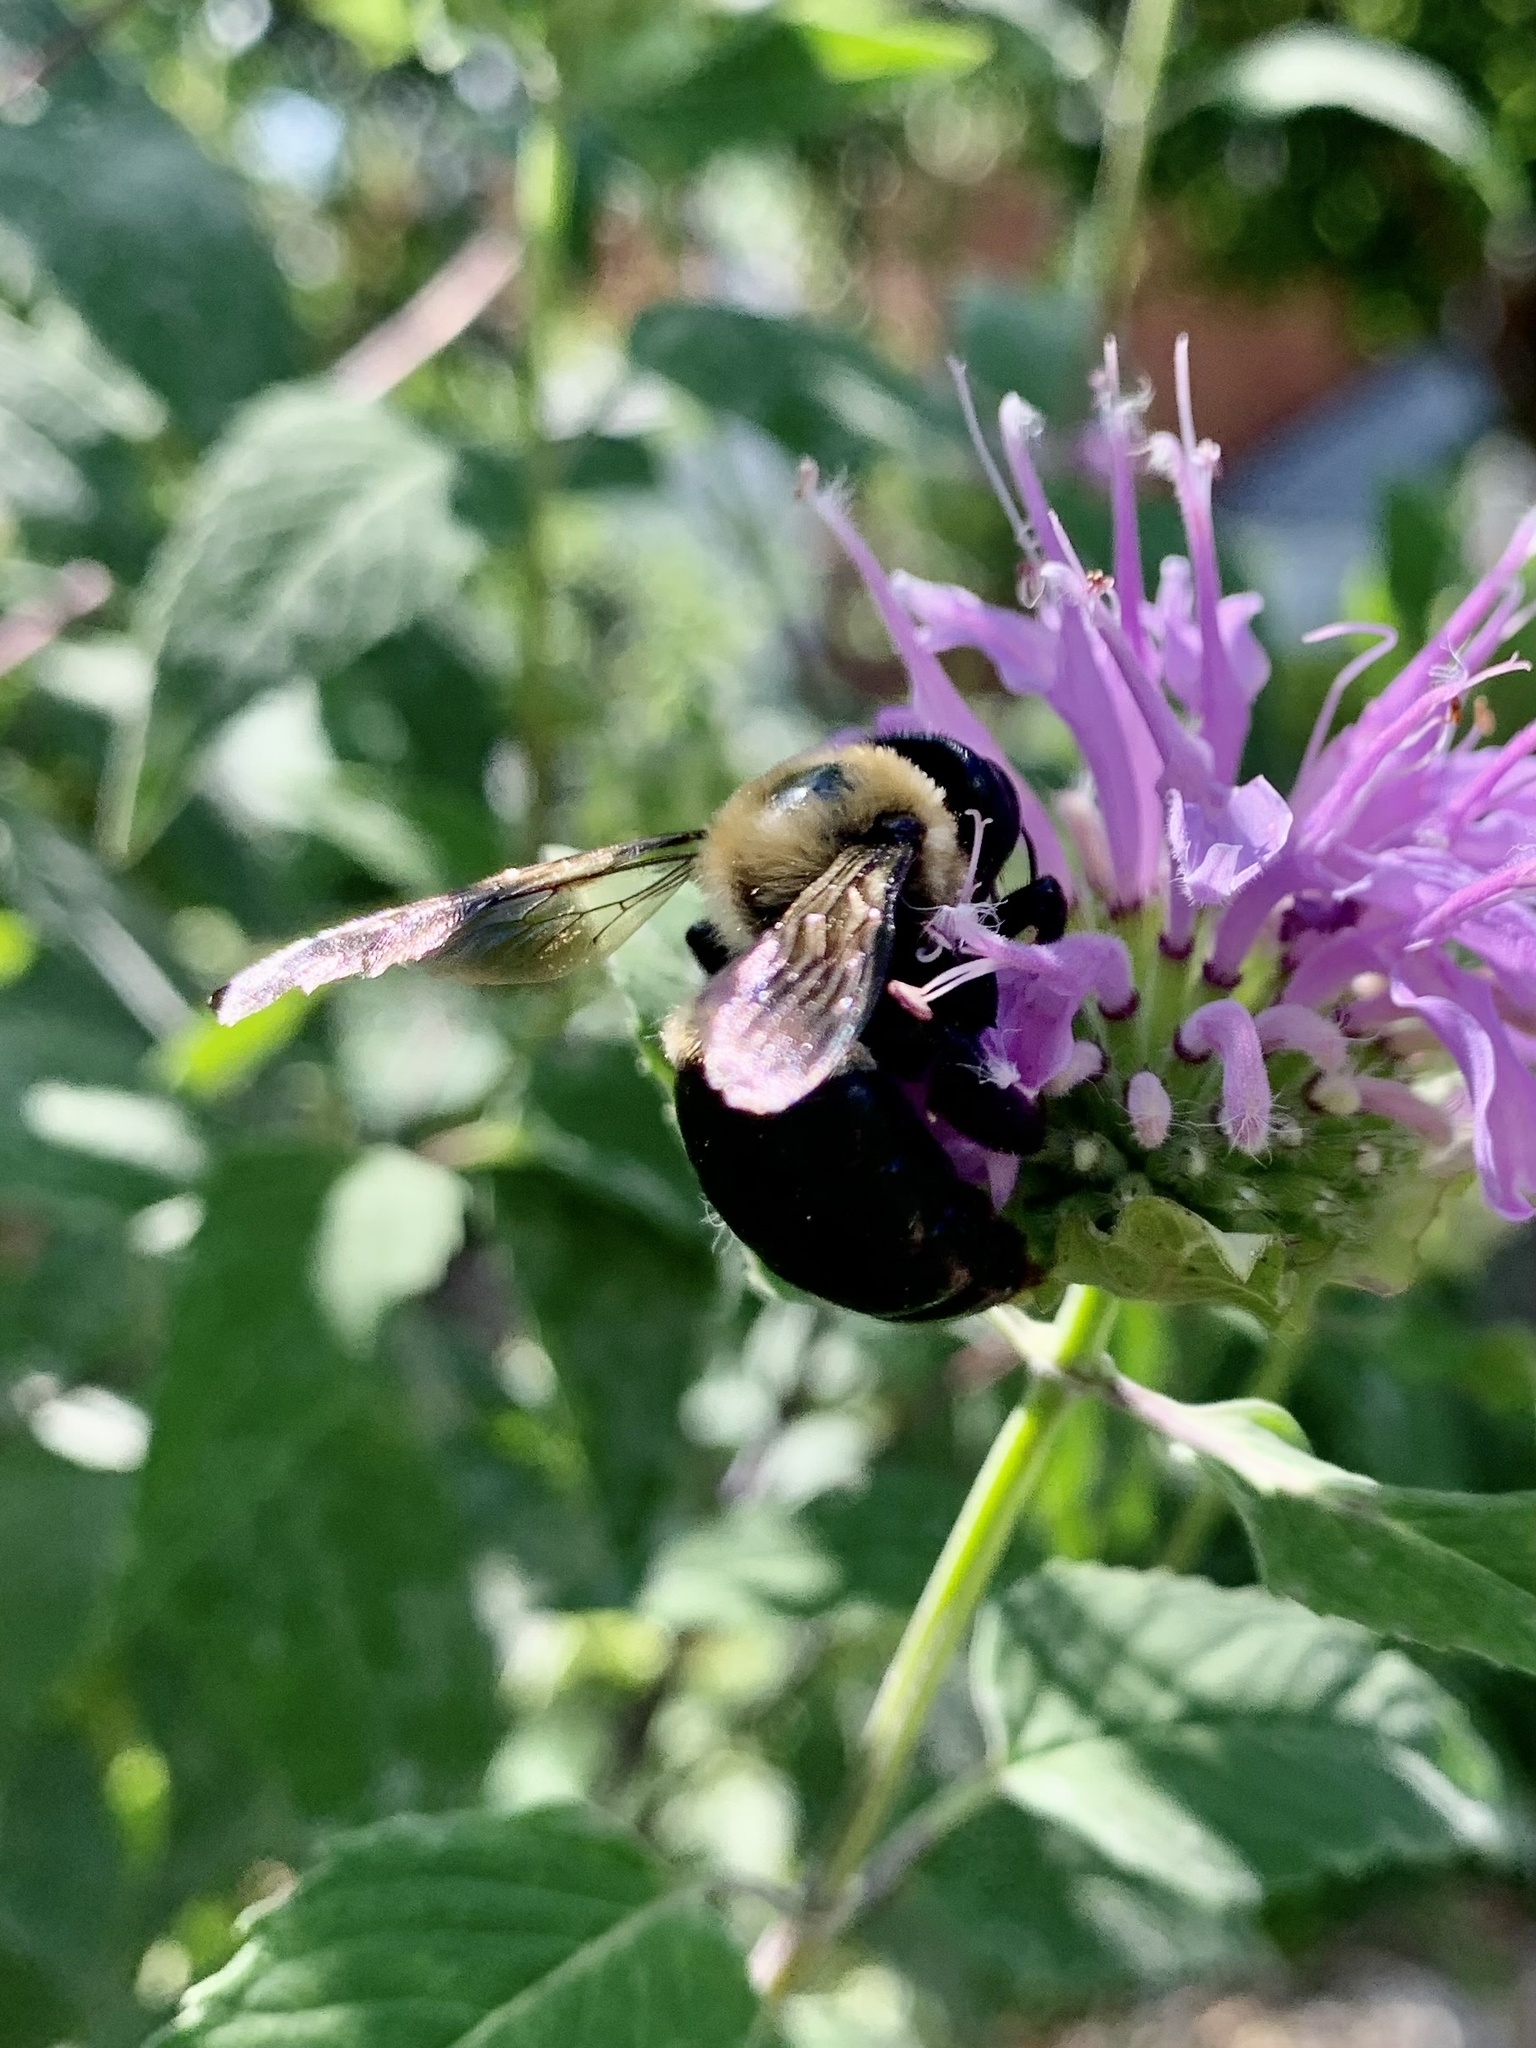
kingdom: Animalia
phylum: Arthropoda
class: Insecta
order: Hymenoptera
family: Apidae
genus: Xylocopa
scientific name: Xylocopa virginica
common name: Carpenter bee
